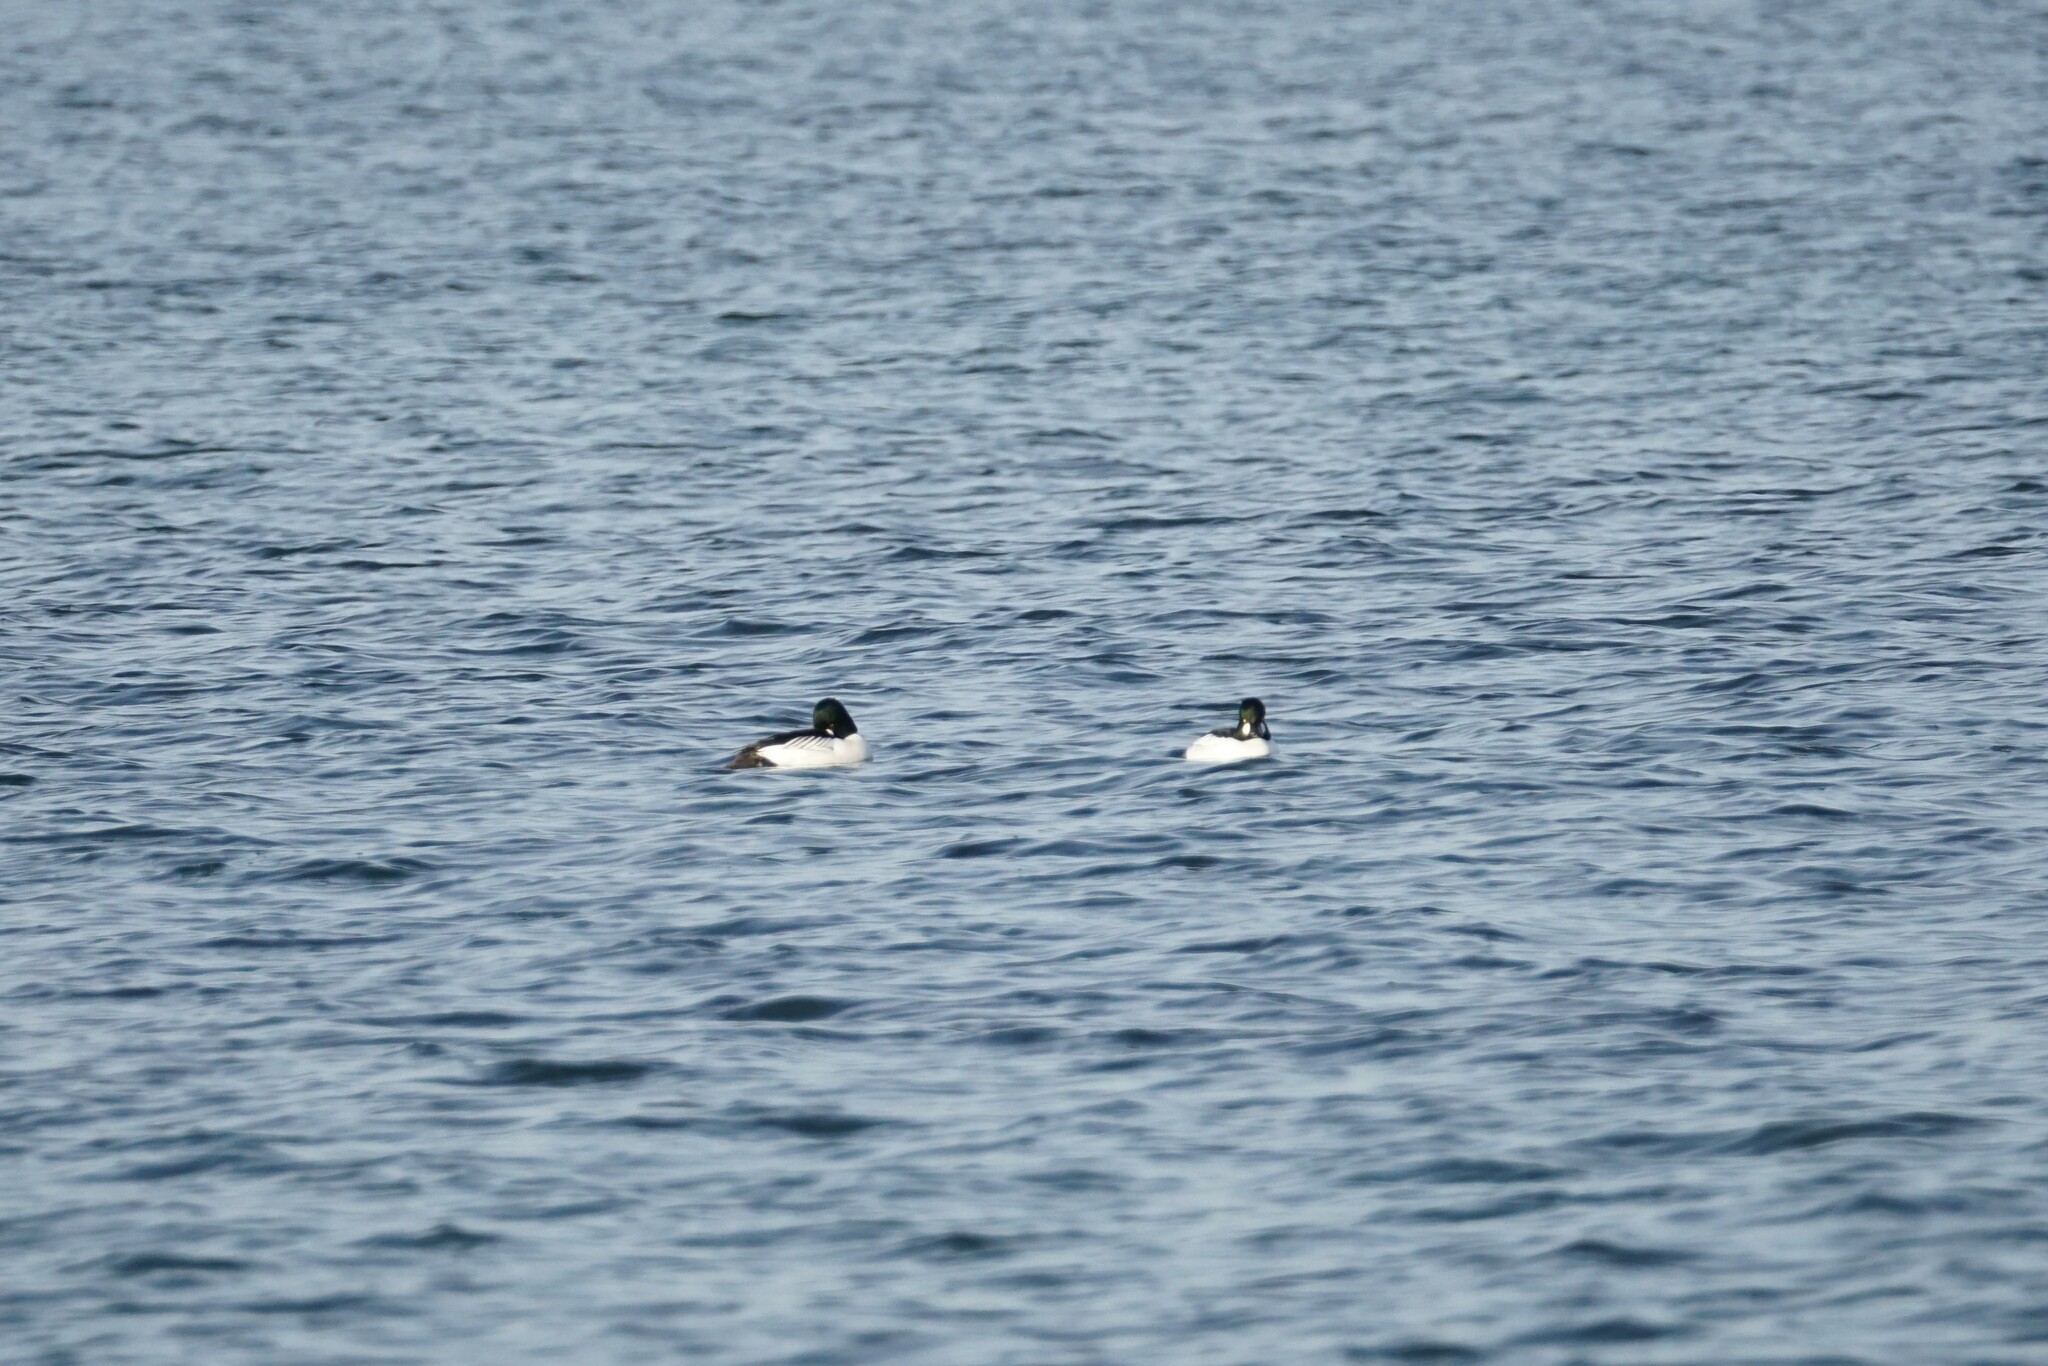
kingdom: Animalia
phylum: Chordata
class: Aves
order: Anseriformes
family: Anatidae
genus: Bucephala
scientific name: Bucephala clangula
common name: Common goldeneye
